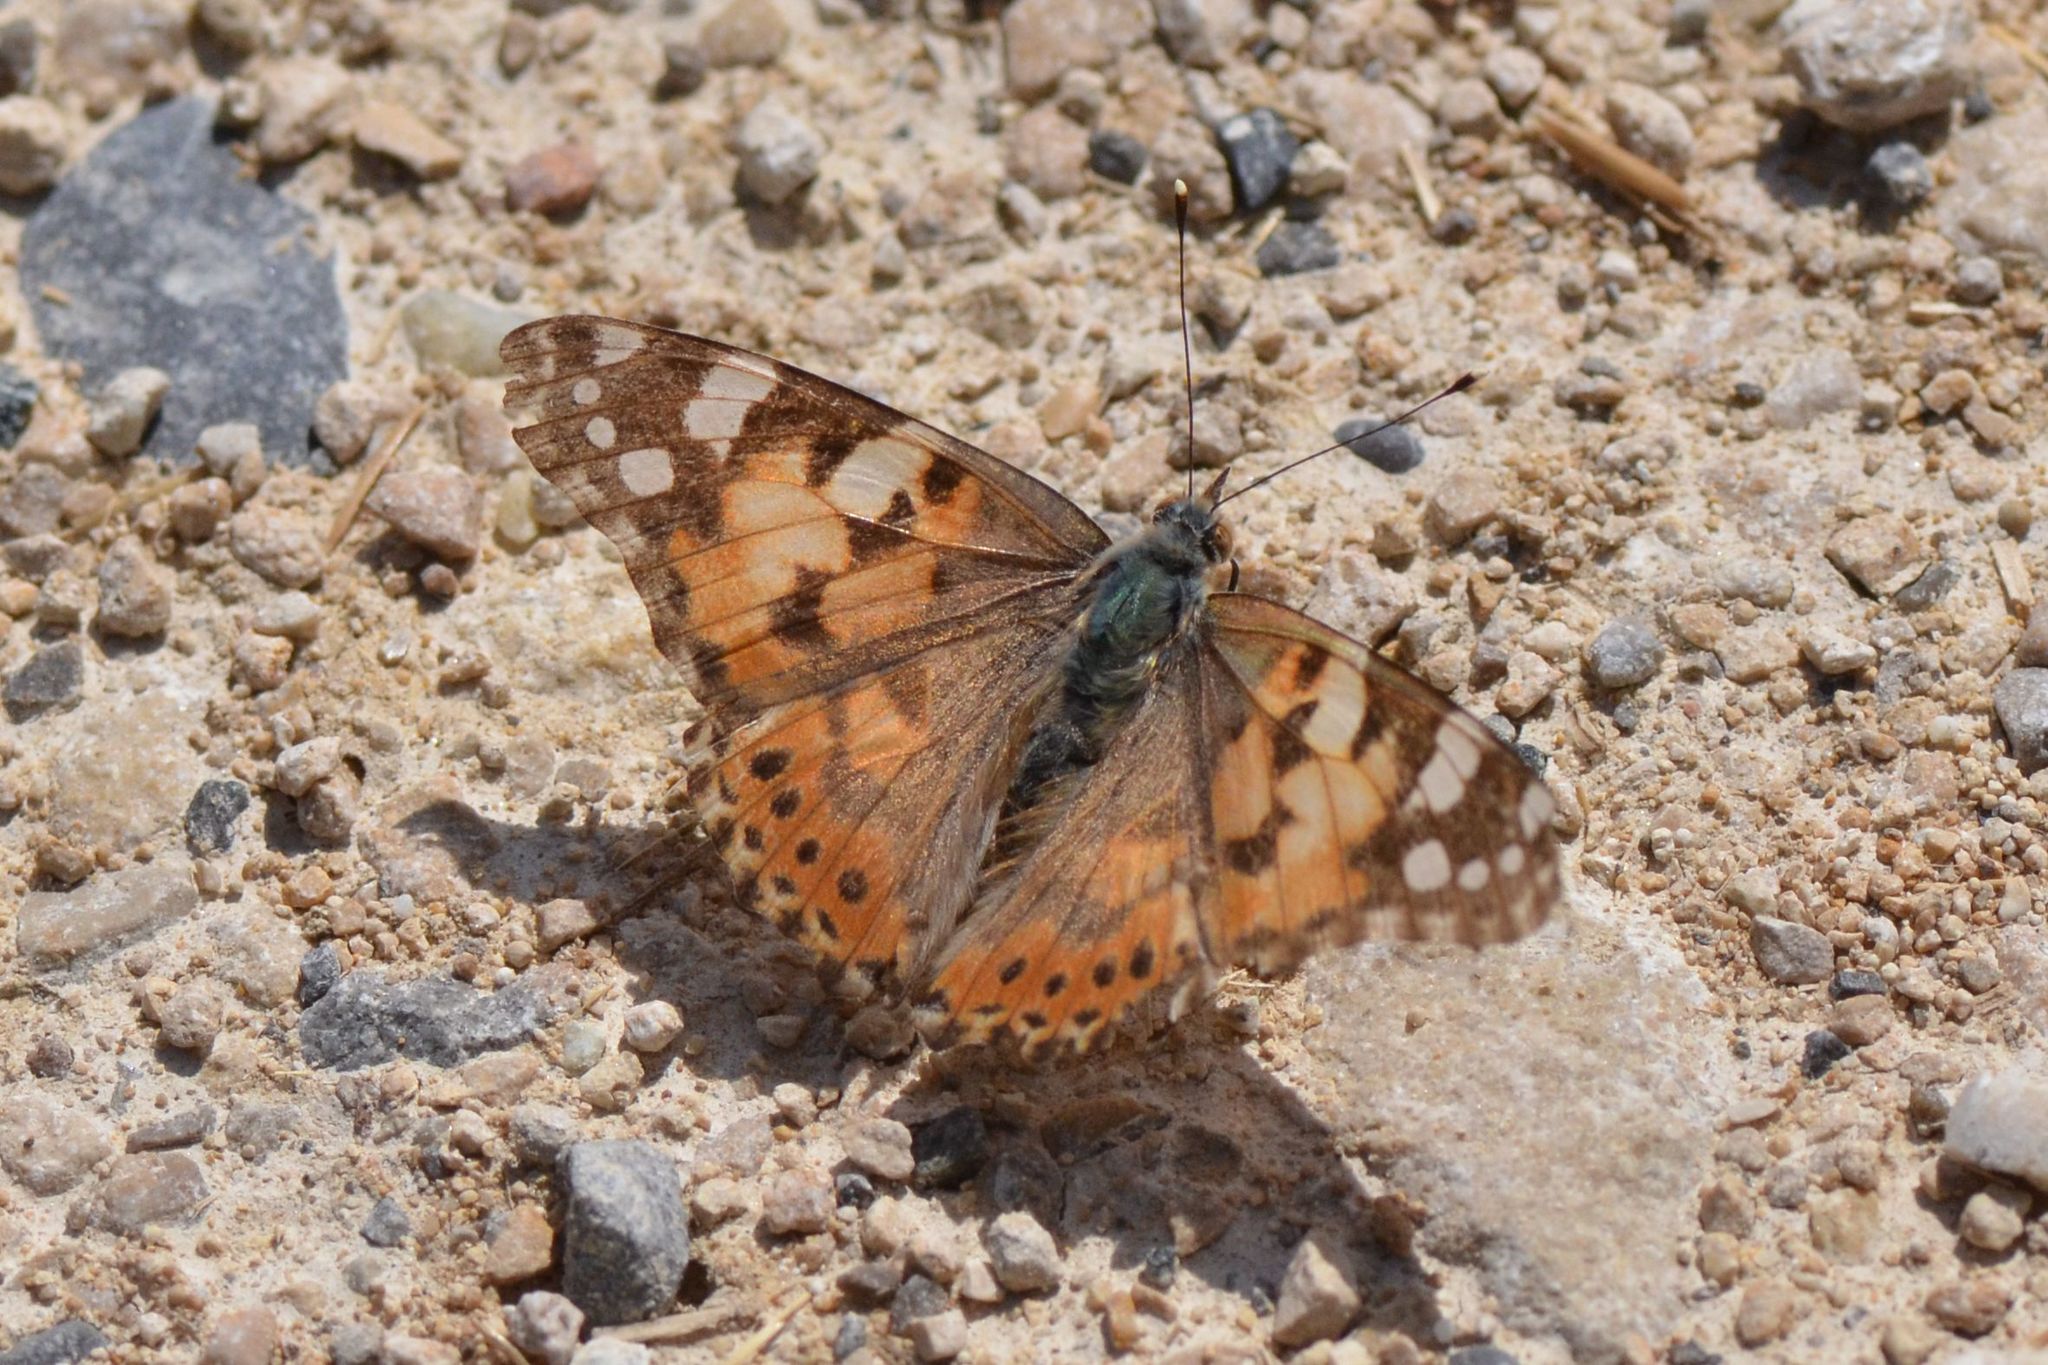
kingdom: Animalia
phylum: Arthropoda
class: Insecta
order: Lepidoptera
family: Nymphalidae
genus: Vanessa
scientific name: Vanessa cardui
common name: Painted lady
